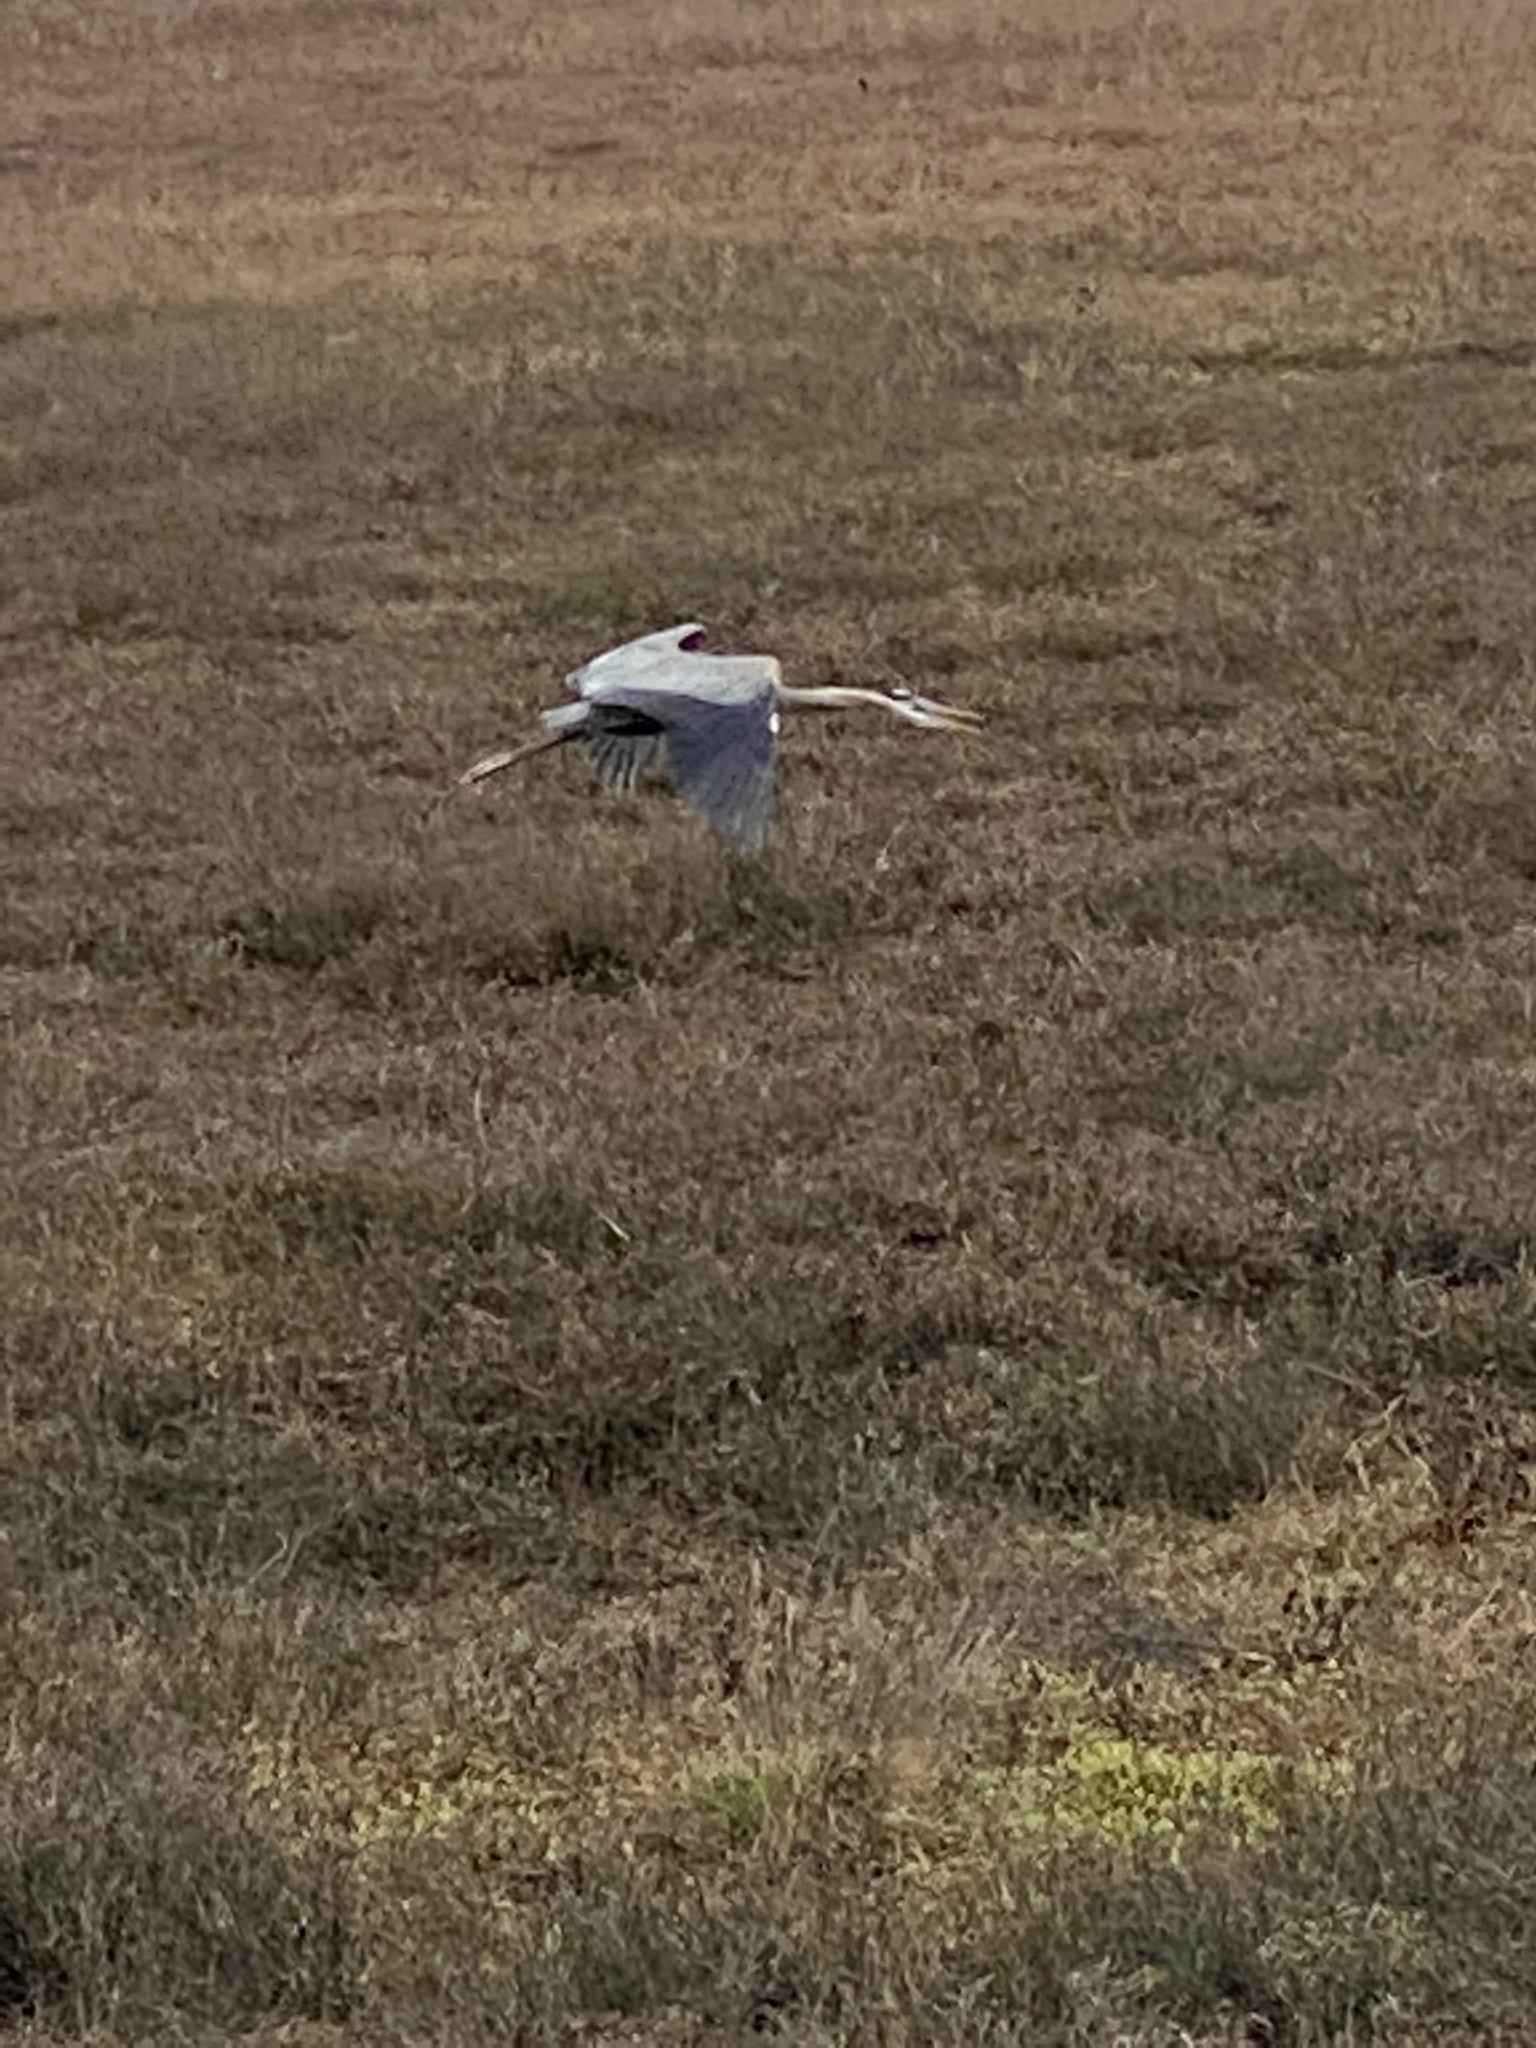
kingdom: Animalia
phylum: Chordata
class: Aves
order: Pelecaniformes
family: Ardeidae
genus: Ardea
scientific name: Ardea herodias
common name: Great blue heron
